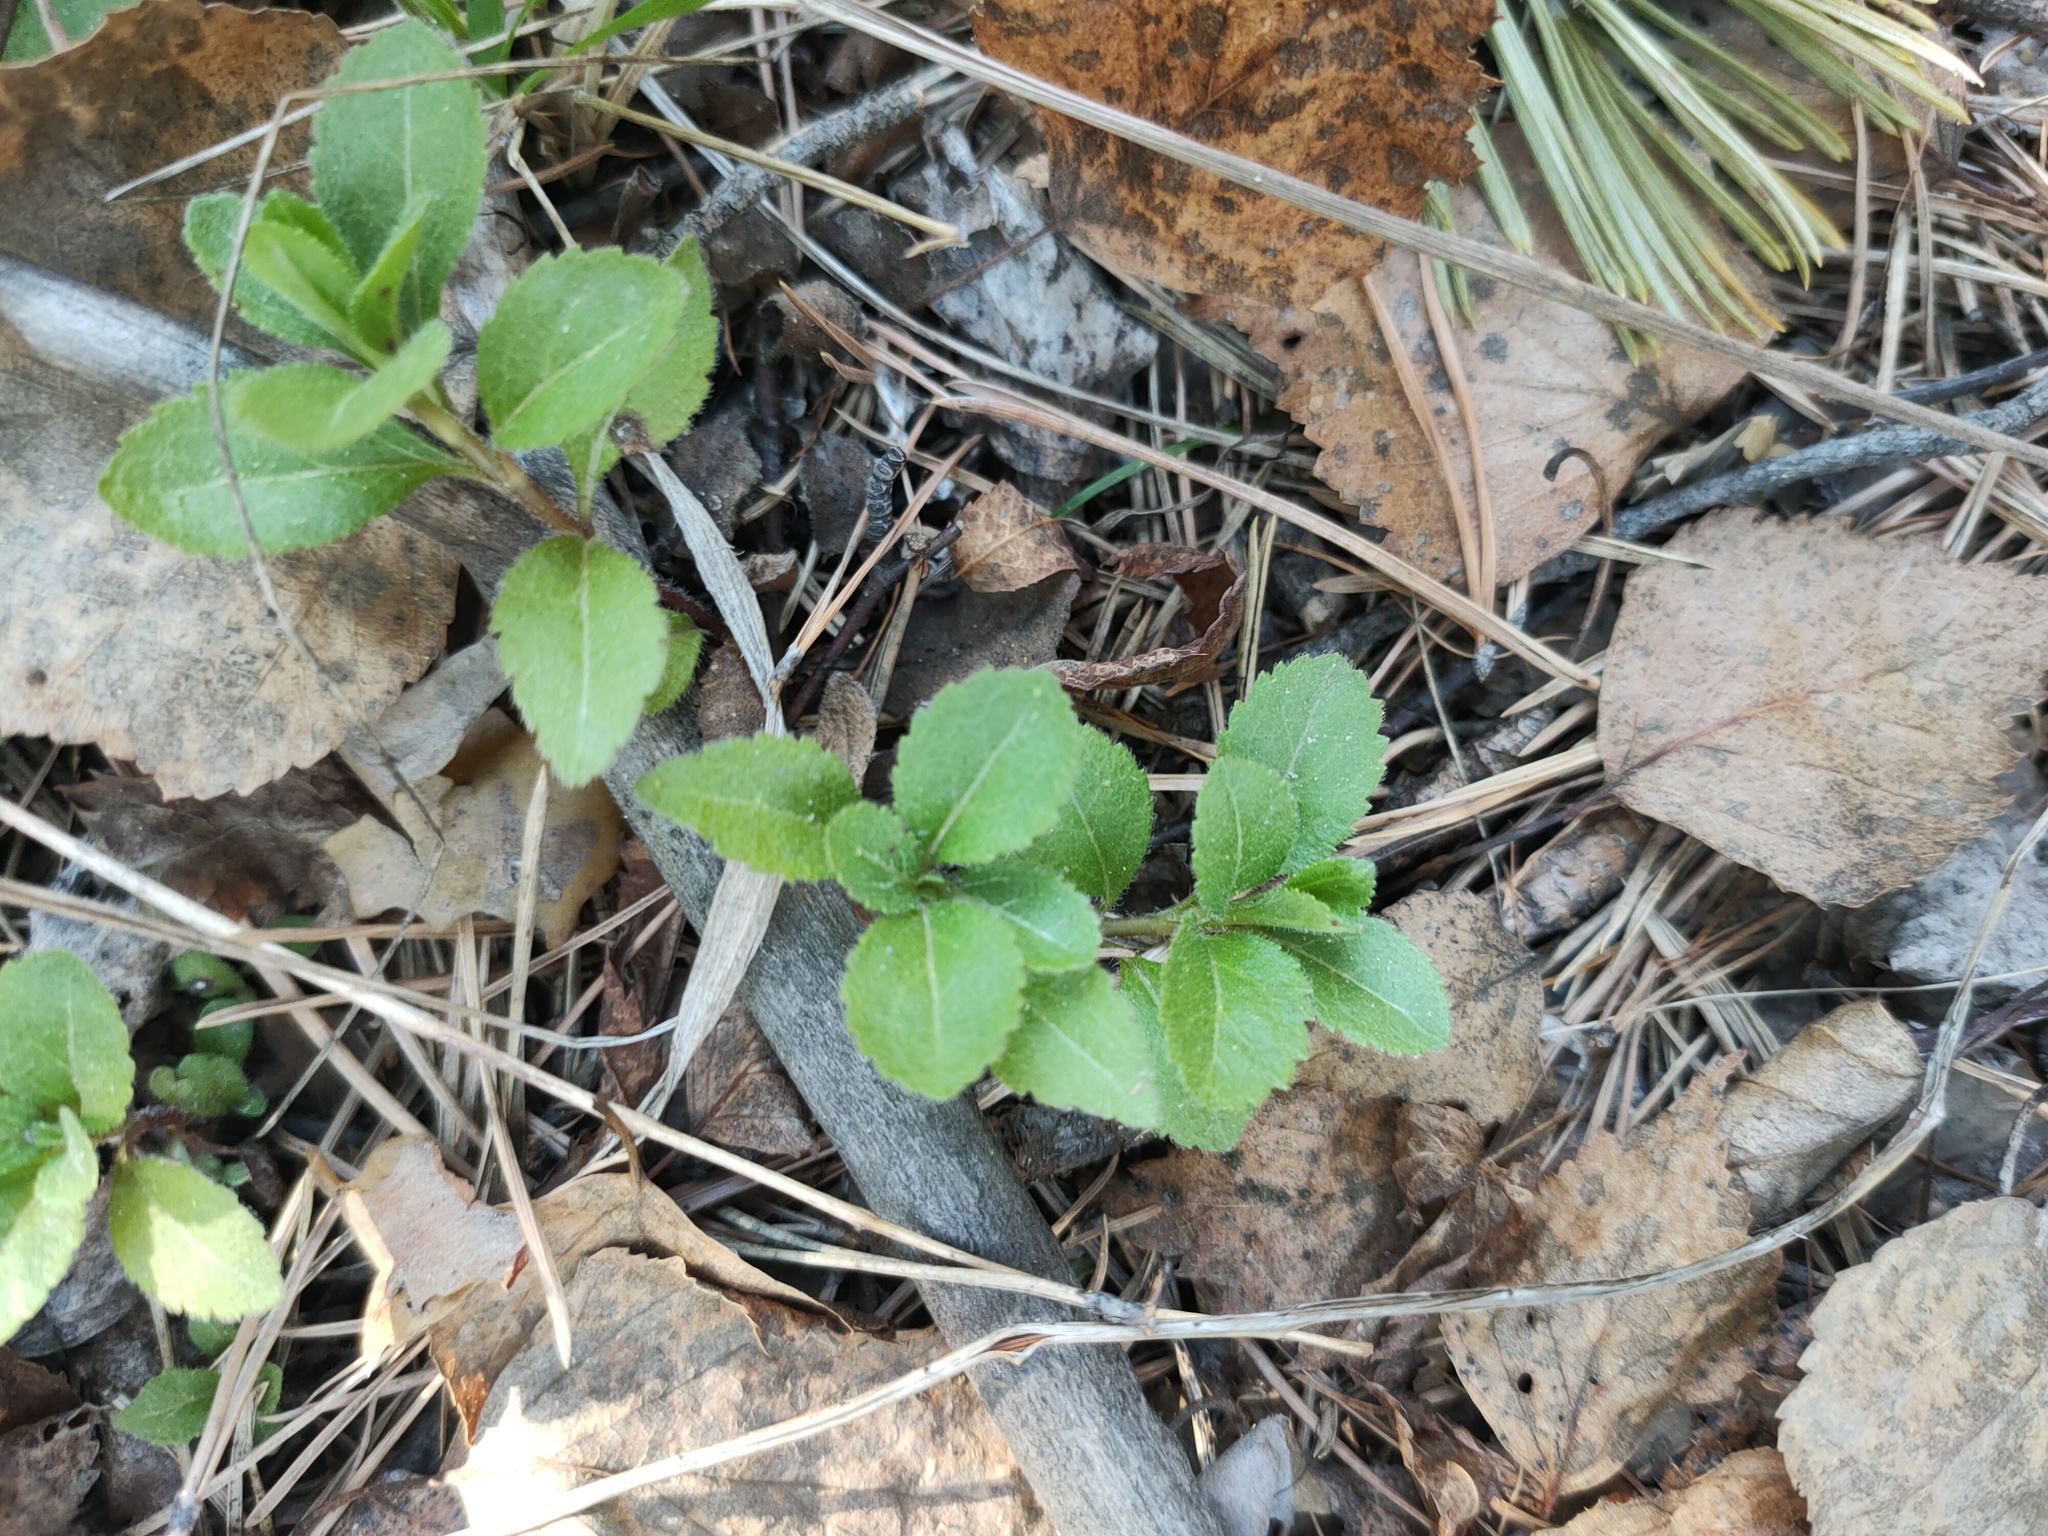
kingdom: Plantae
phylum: Tracheophyta
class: Magnoliopsida
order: Lamiales
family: Plantaginaceae
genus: Veronica
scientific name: Veronica officinalis
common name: Common speedwell
